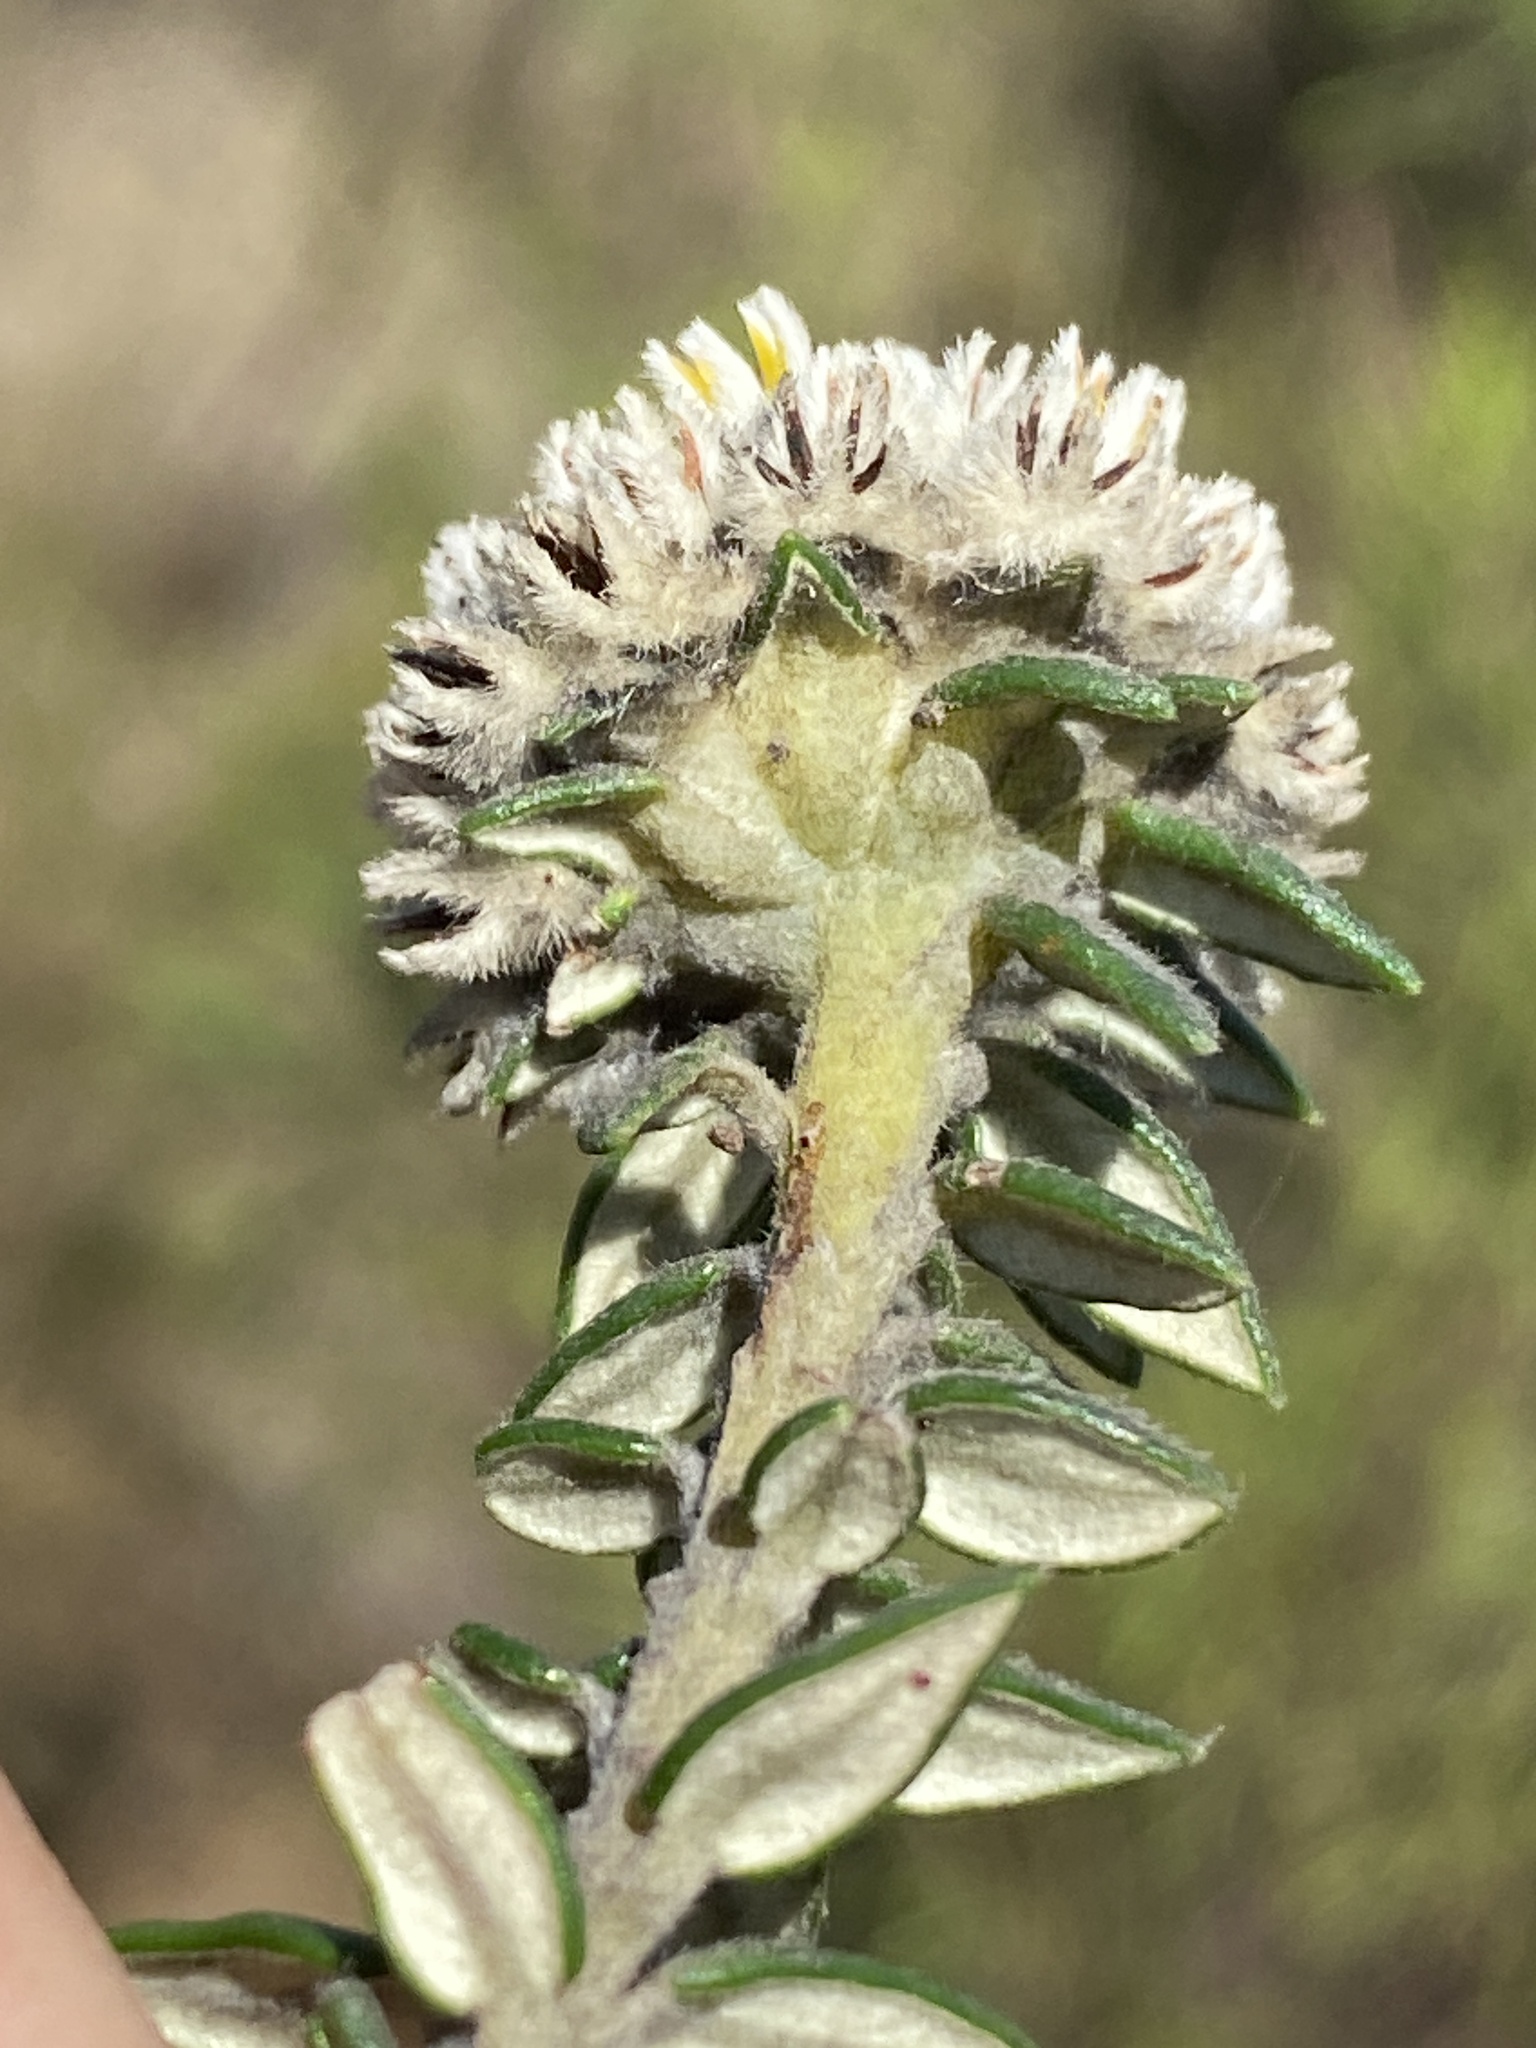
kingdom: Plantae
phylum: Tracheophyta
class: Magnoliopsida
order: Rosales
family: Rhamnaceae
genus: Phylica
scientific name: Phylica propinqua
